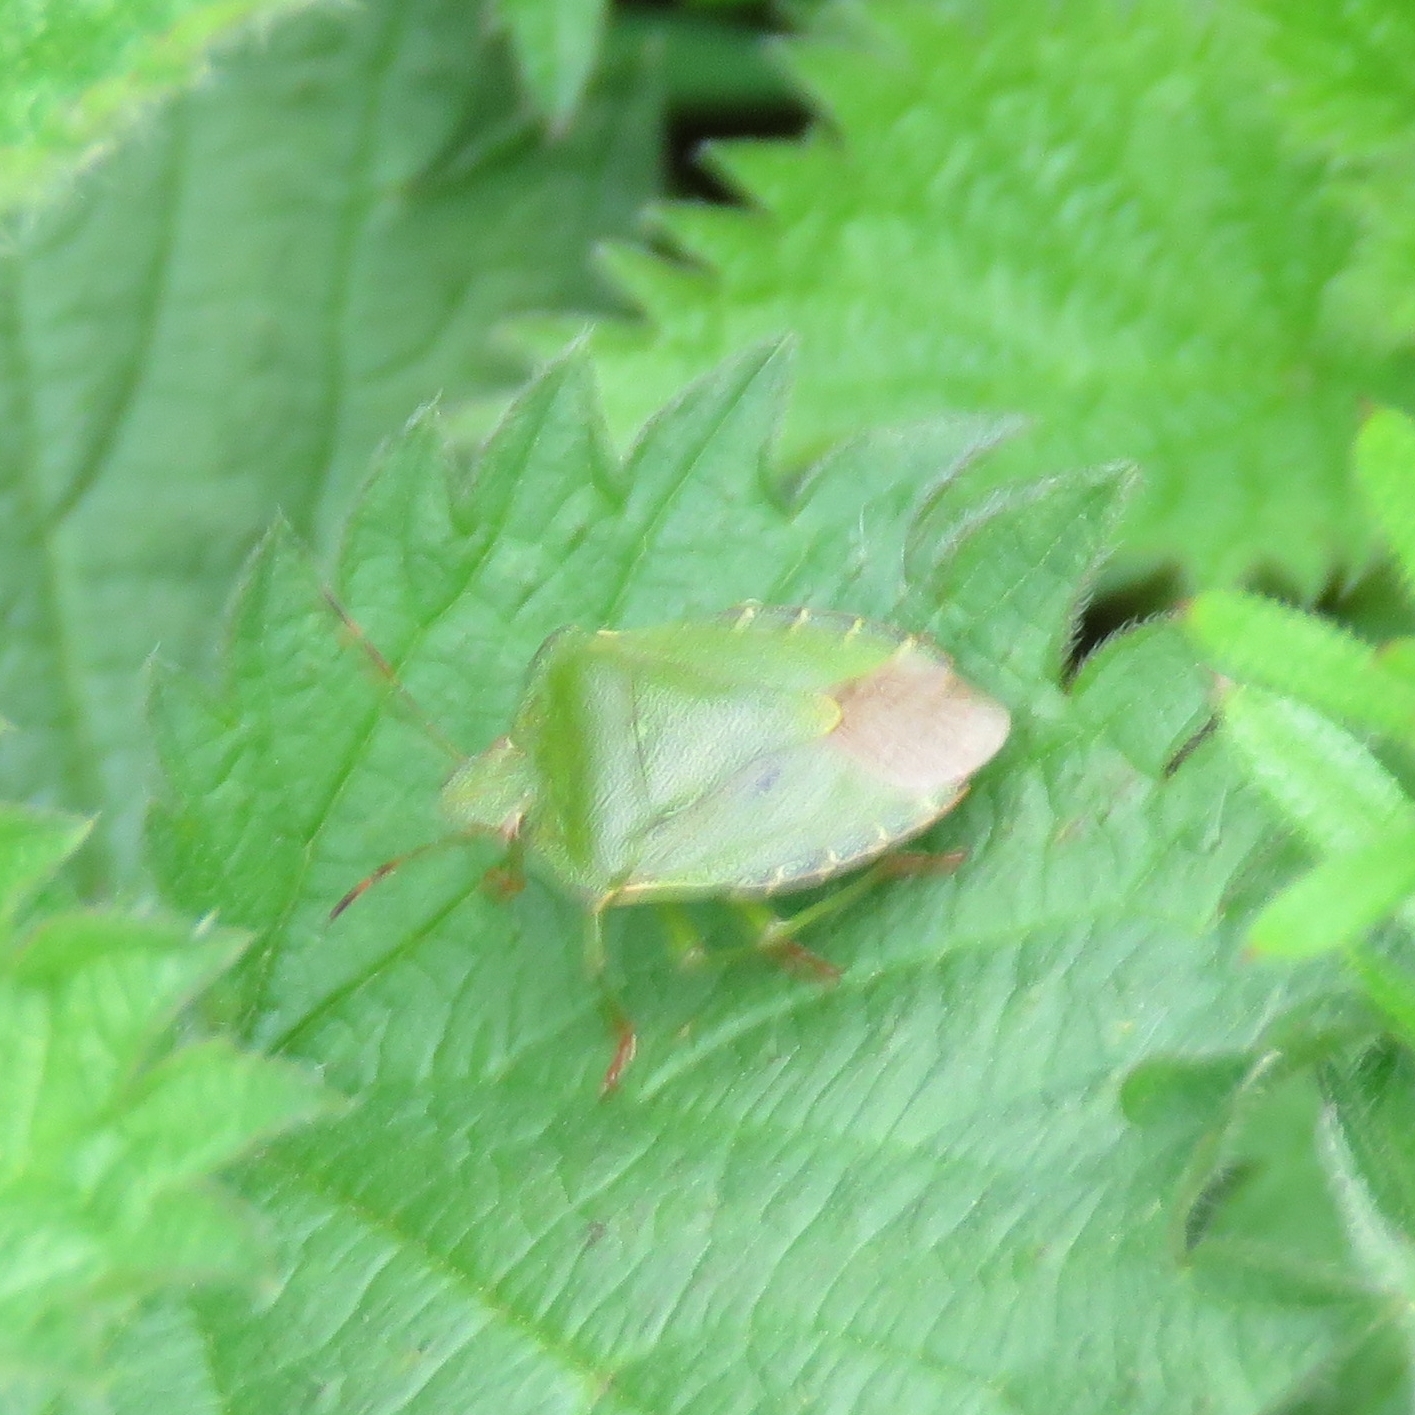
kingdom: Animalia
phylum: Arthropoda
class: Insecta
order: Hemiptera
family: Pentatomidae
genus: Palomena
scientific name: Palomena prasina
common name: Green shieldbug
